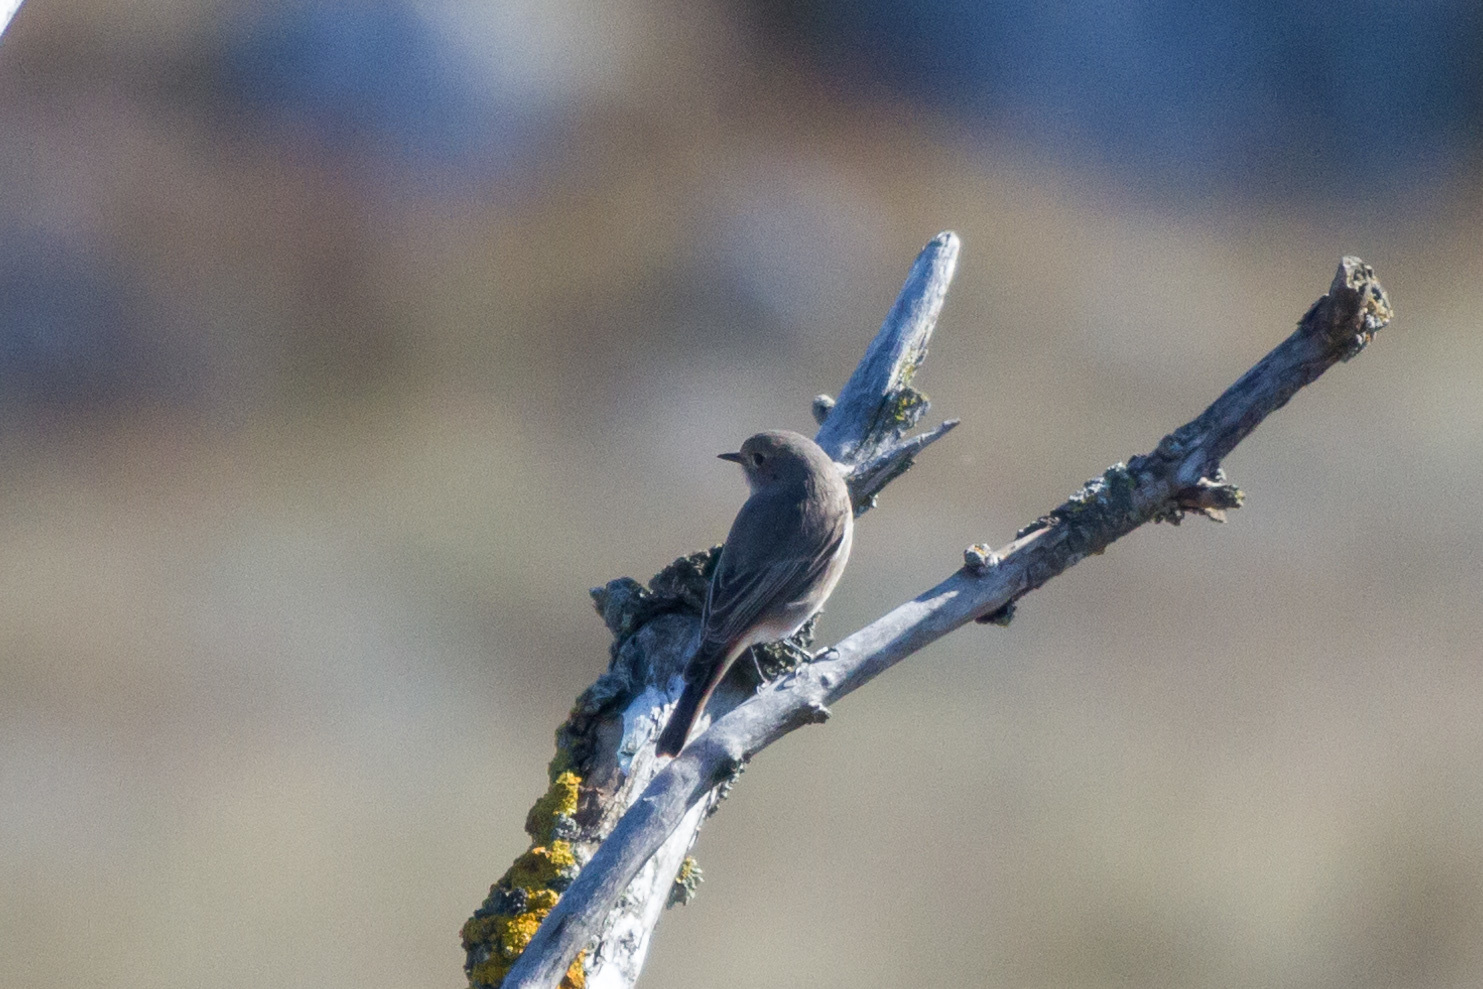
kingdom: Animalia
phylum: Chordata
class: Aves
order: Passeriformes
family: Muscicapidae
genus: Phoenicurus
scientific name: Phoenicurus ochruros
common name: Black redstart
